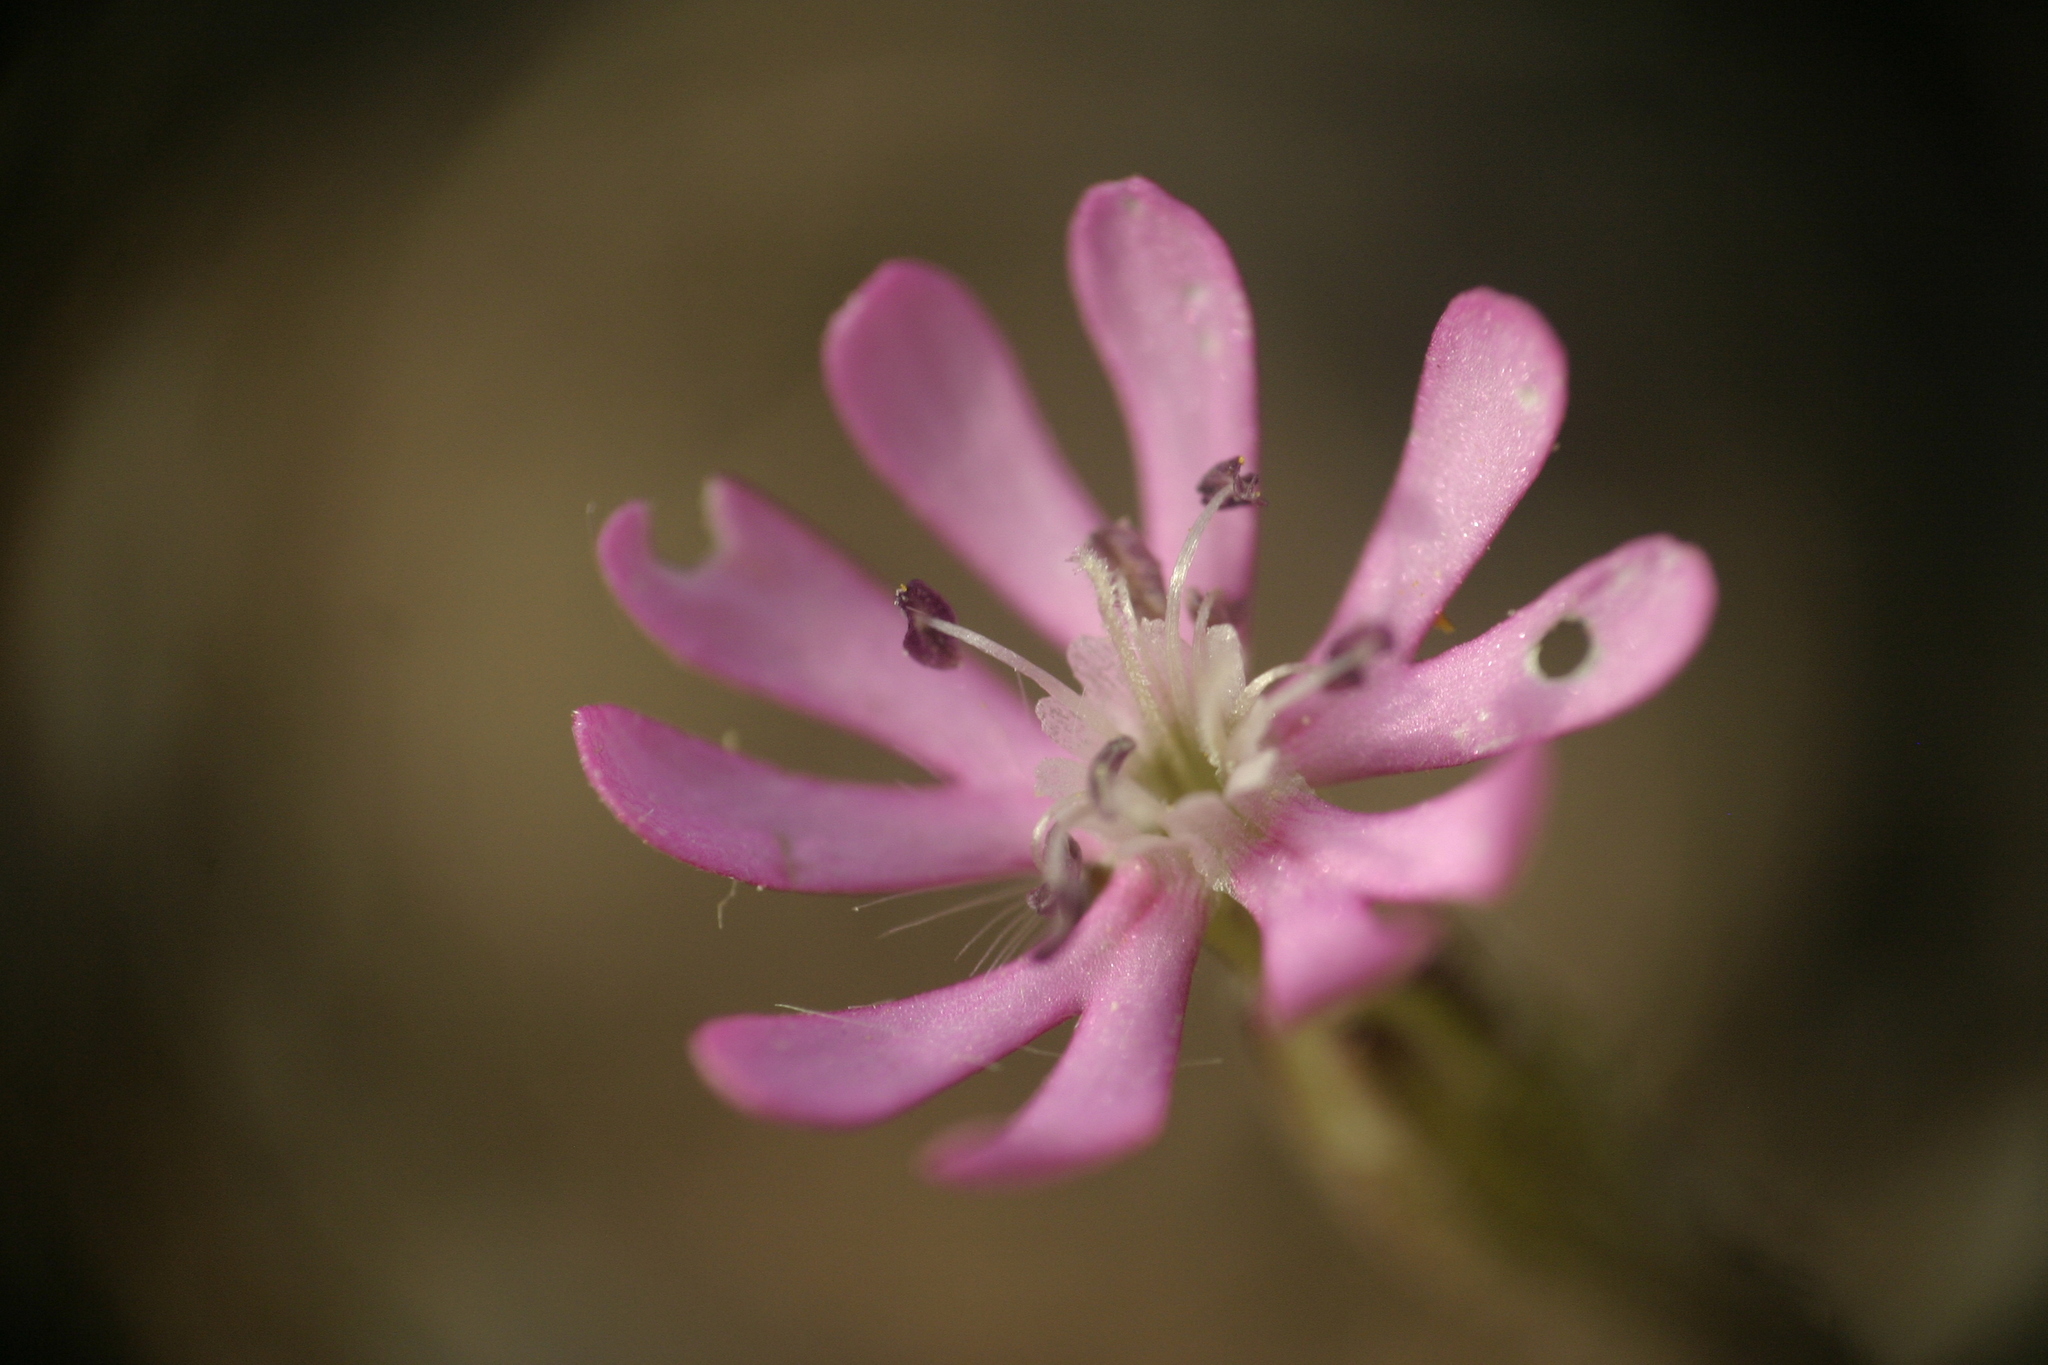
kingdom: Plantae
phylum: Tracheophyta
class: Magnoliopsida
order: Caryophyllales
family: Caryophyllaceae
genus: Silene
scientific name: Silene colorata
